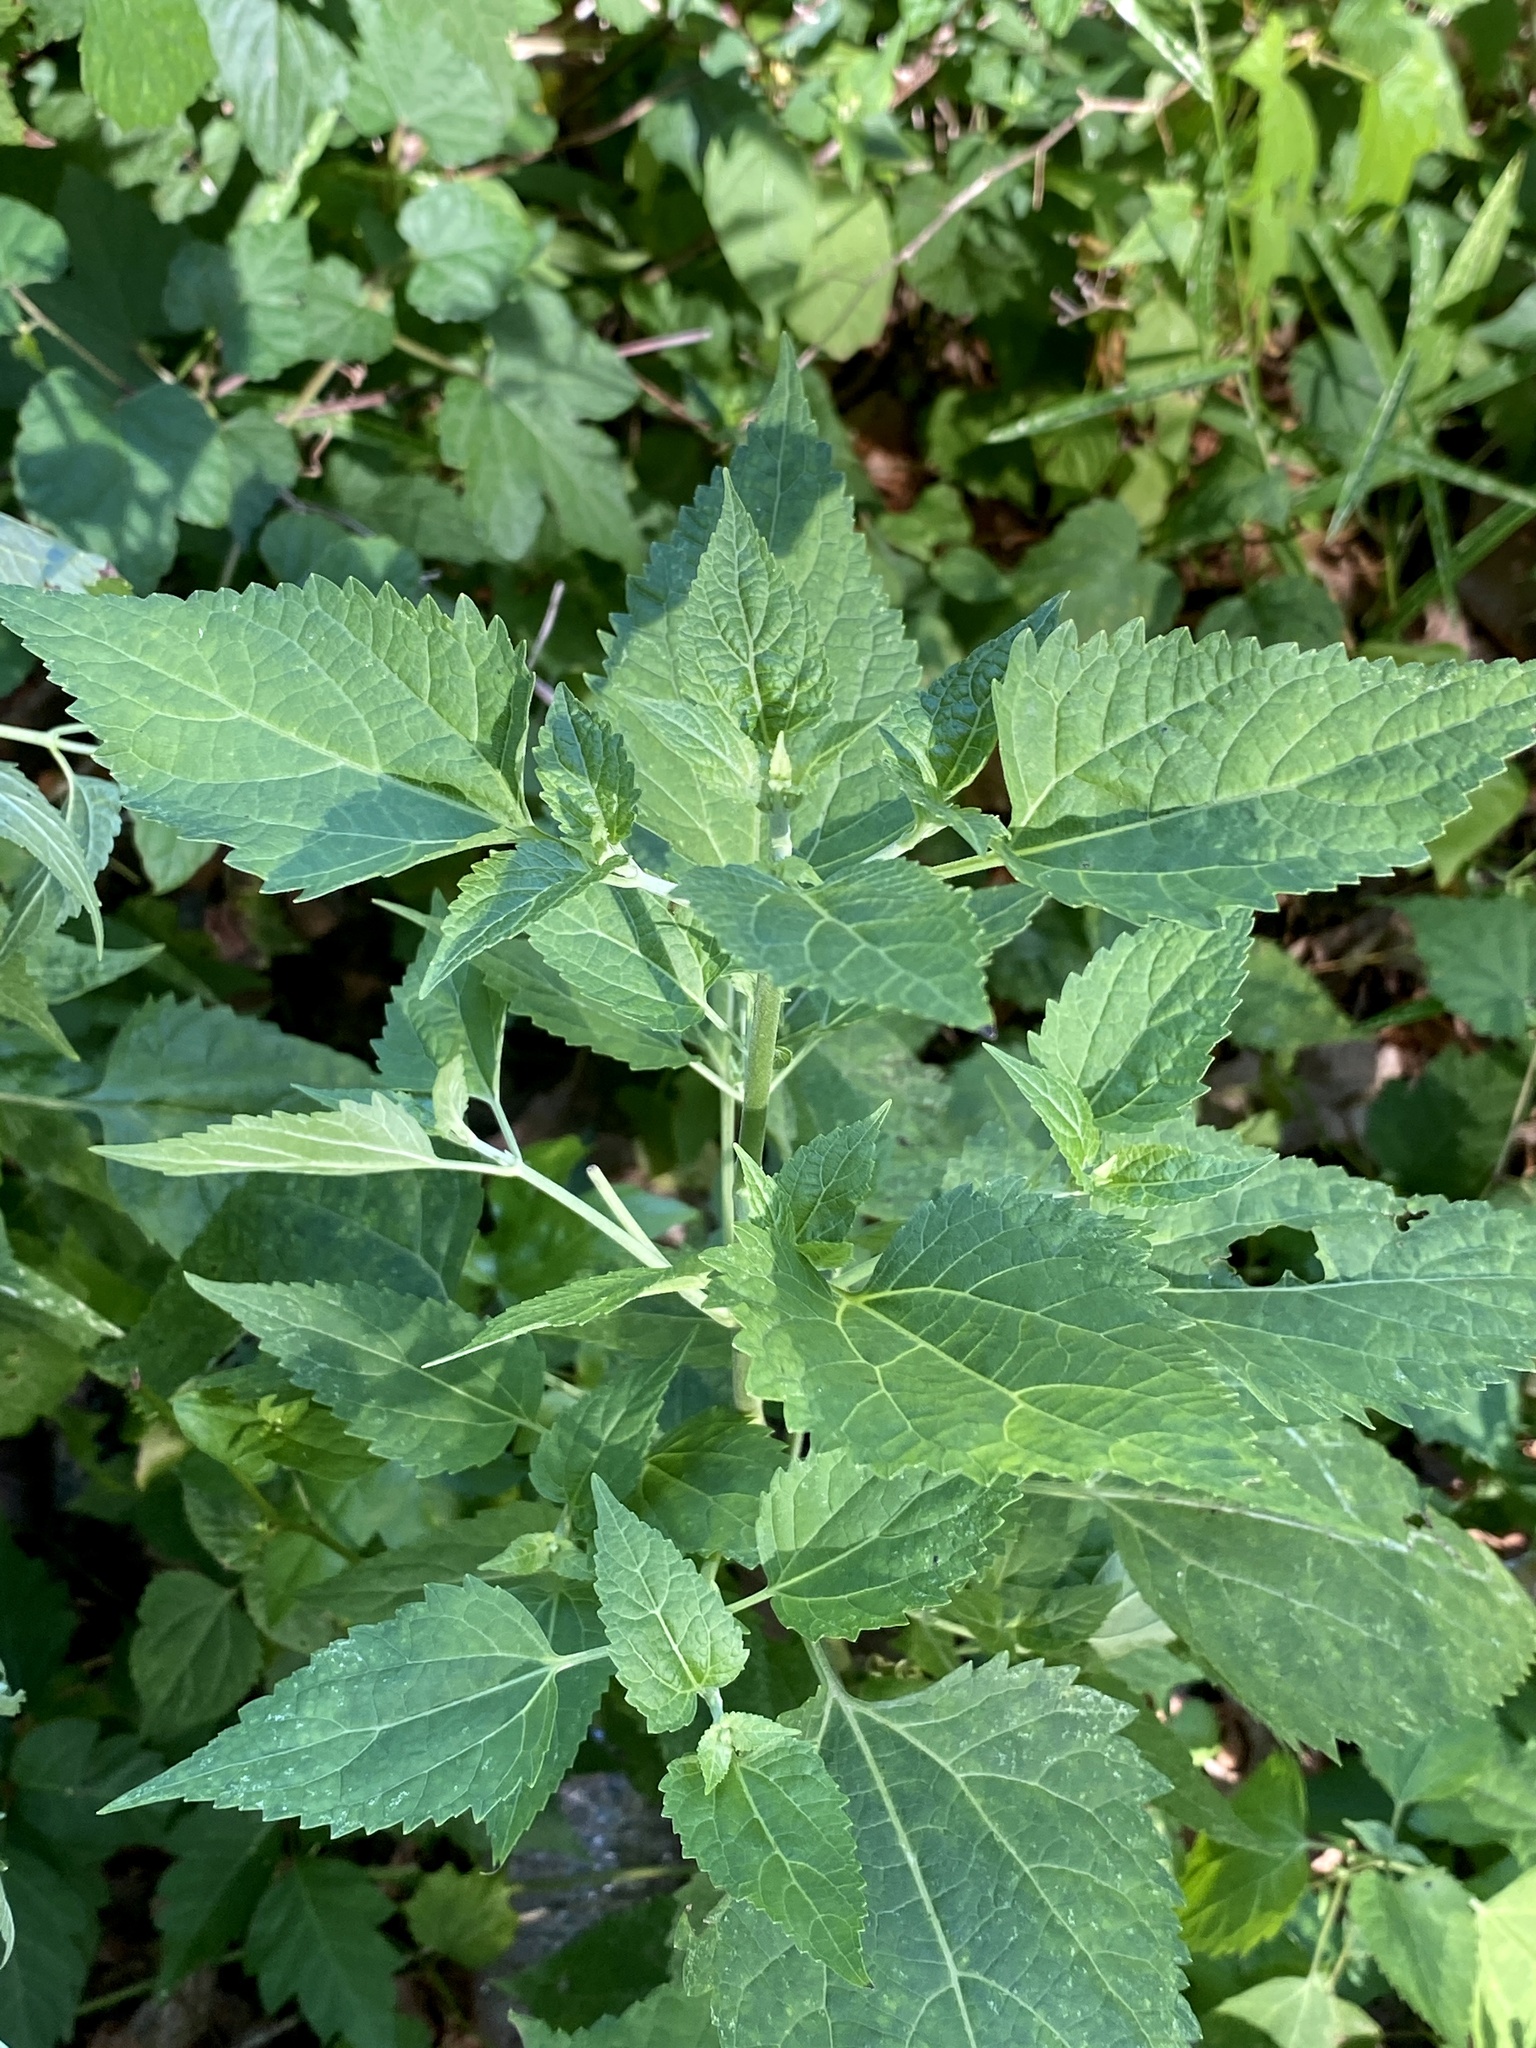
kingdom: Plantae
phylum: Tracheophyta
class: Magnoliopsida
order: Asterales
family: Asteraceae
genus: Ageratina
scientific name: Ageratina altissima
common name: White snakeroot
